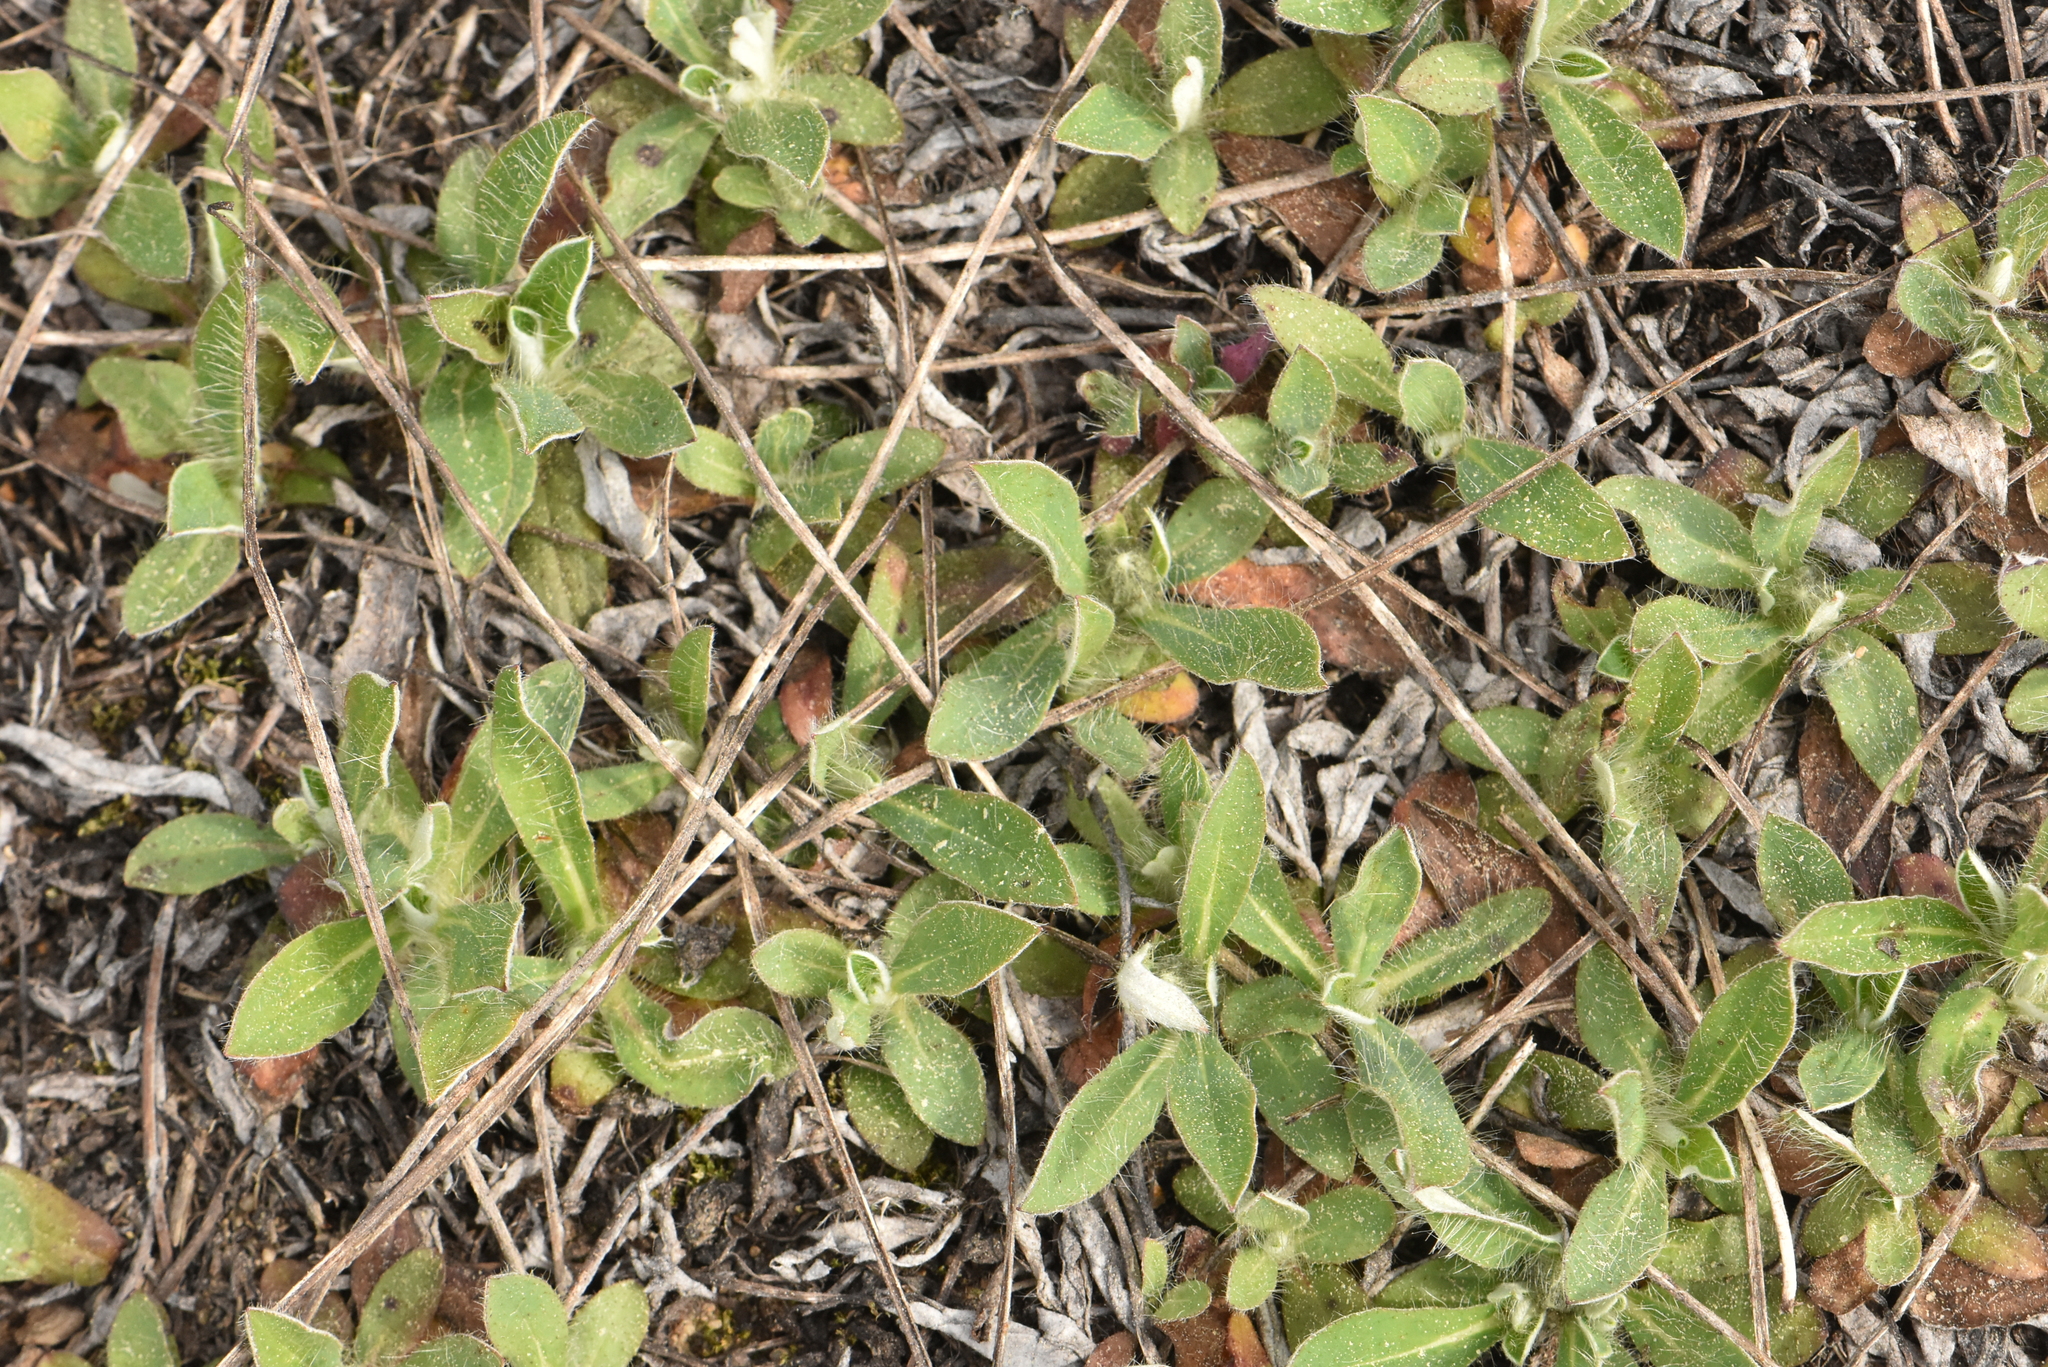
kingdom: Plantae
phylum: Tracheophyta
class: Magnoliopsida
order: Asterales
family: Asteraceae
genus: Pilosella
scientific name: Pilosella officinarum
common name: Mouse-ear hawkweed
